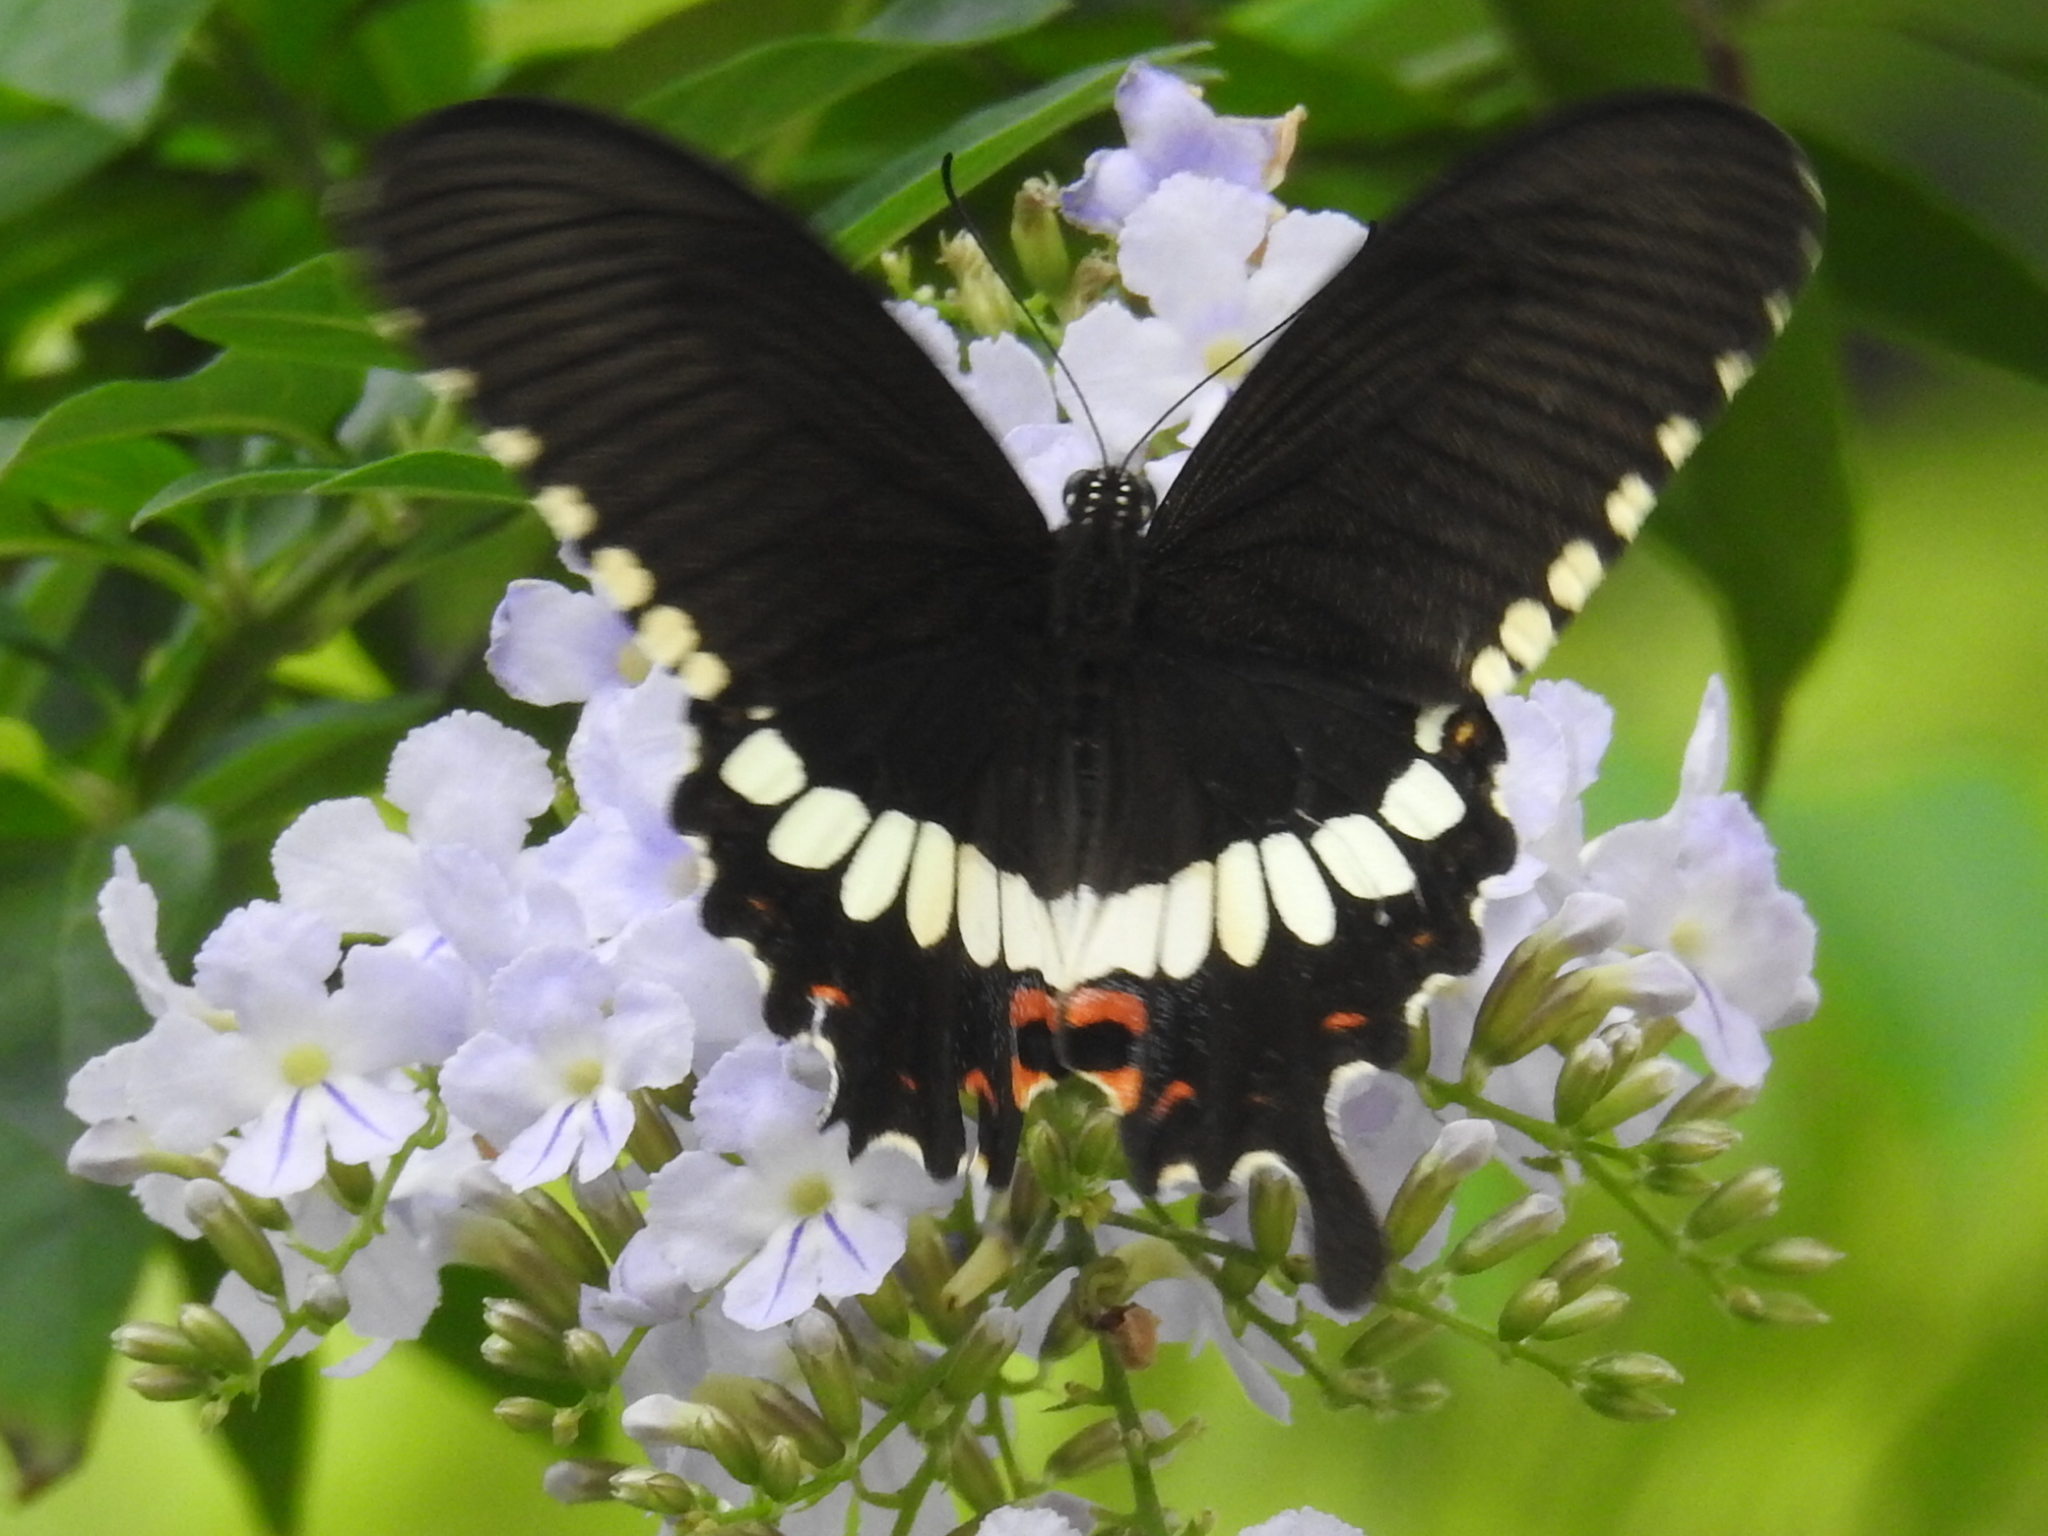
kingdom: Animalia
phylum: Arthropoda
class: Insecta
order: Lepidoptera
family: Papilionidae
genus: Papilio
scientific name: Papilio polytes
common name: Common mormon
